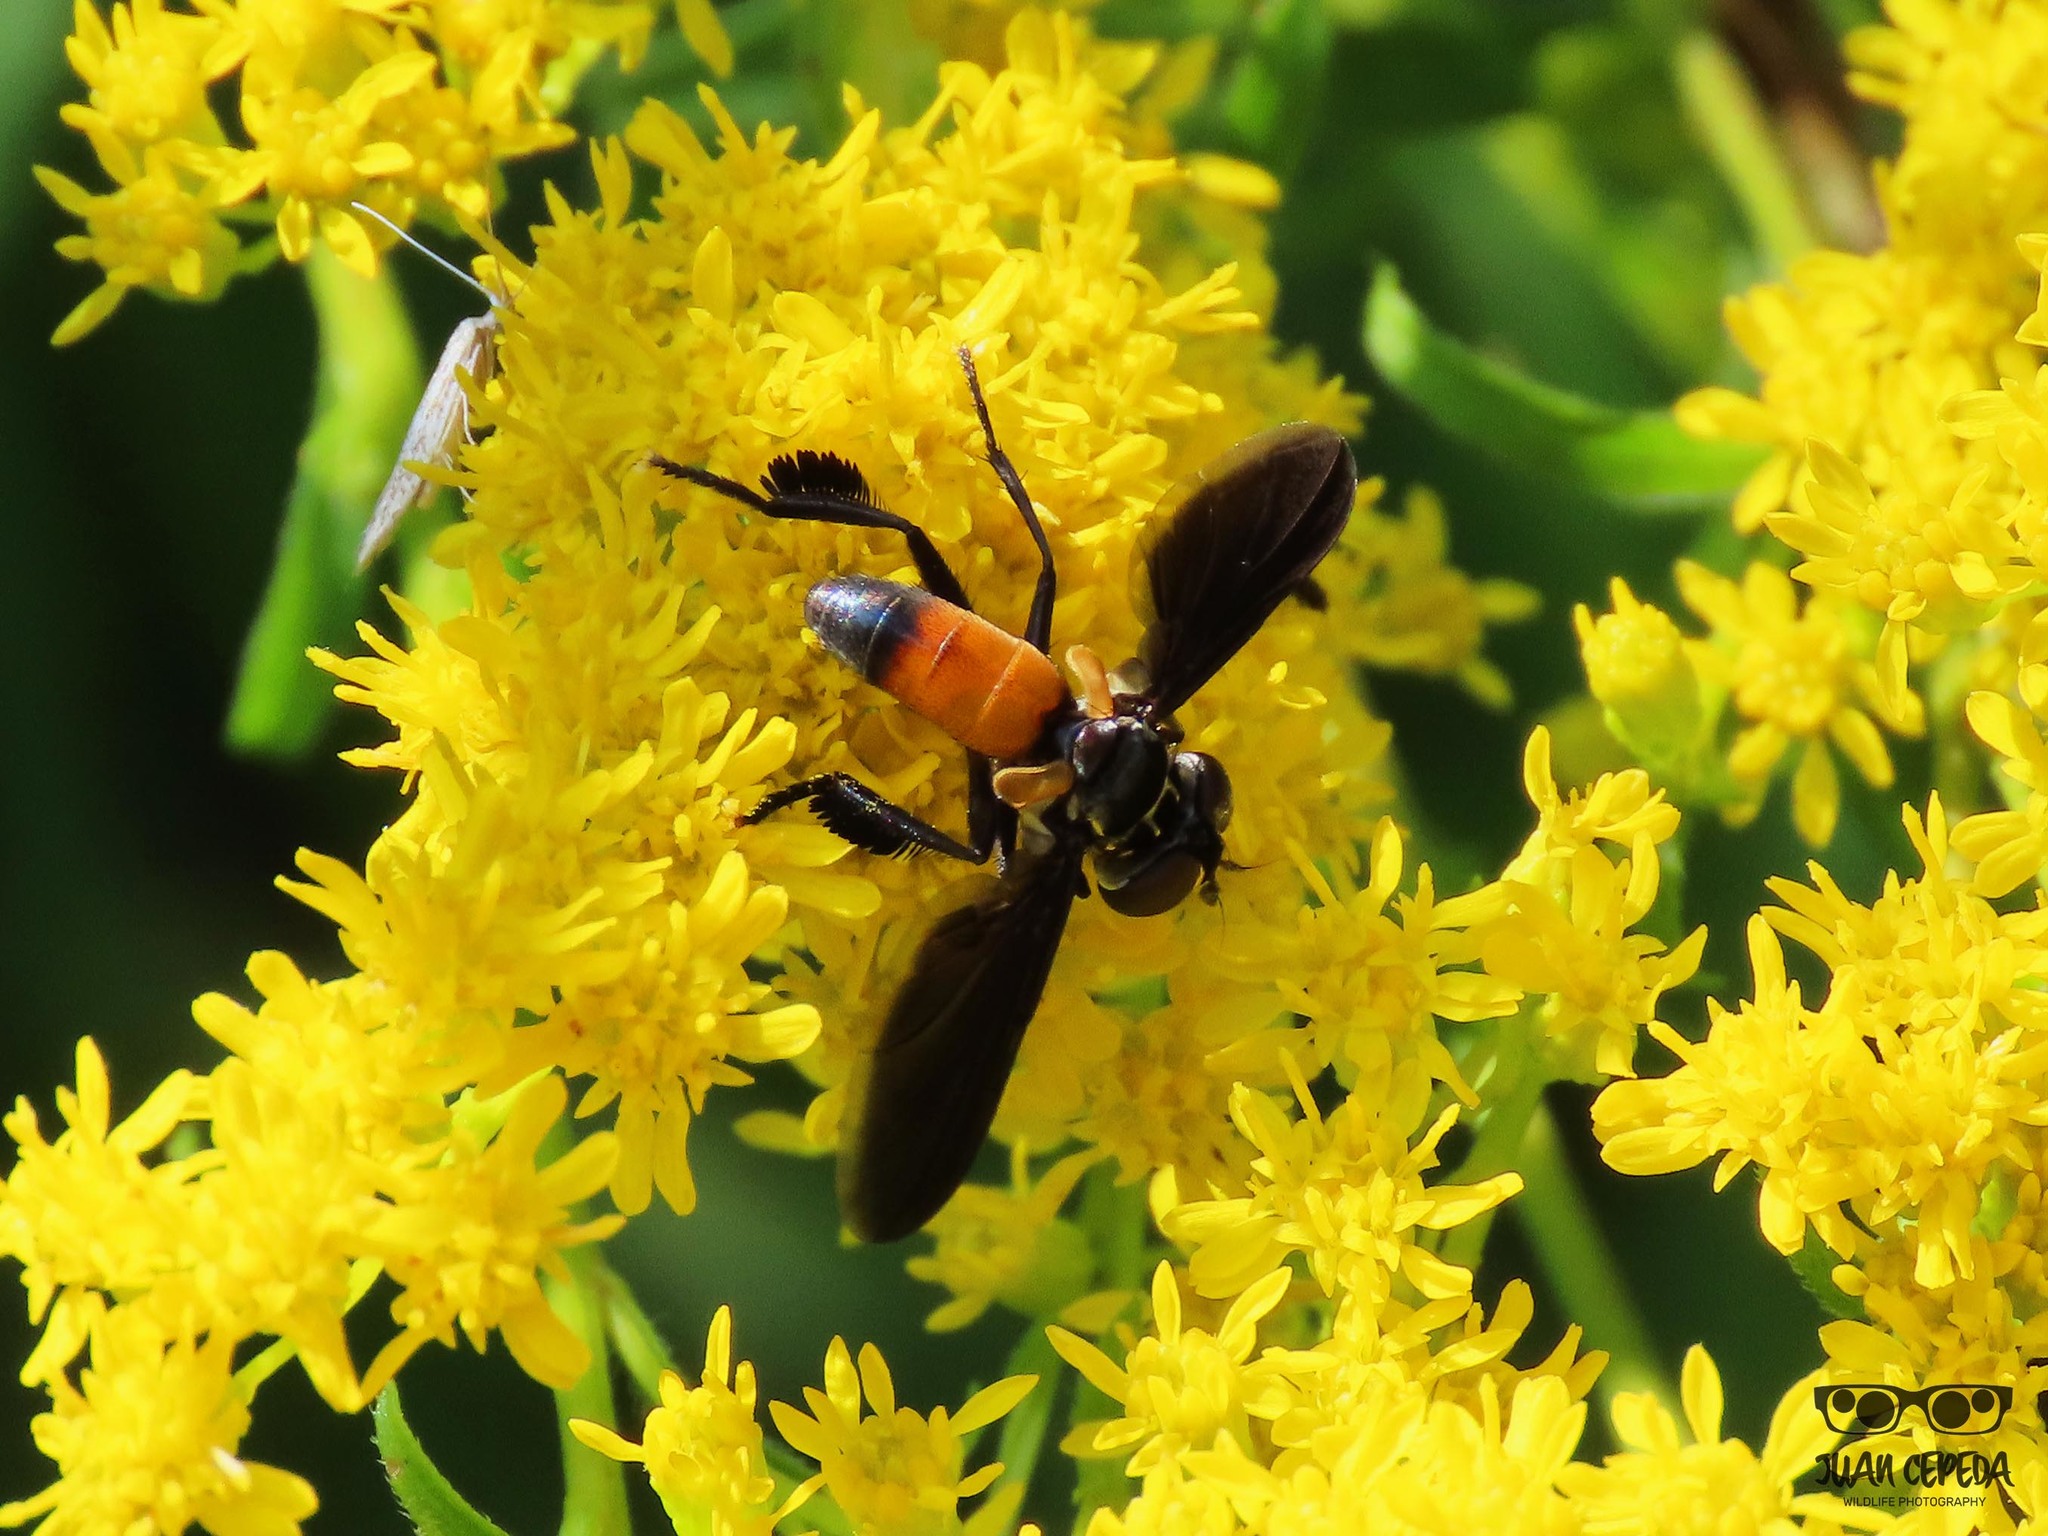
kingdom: Animalia
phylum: Arthropoda
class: Insecta
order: Diptera
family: Tachinidae
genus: Trichopoda
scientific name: Trichopoda pennipes
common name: Tachinid fly
